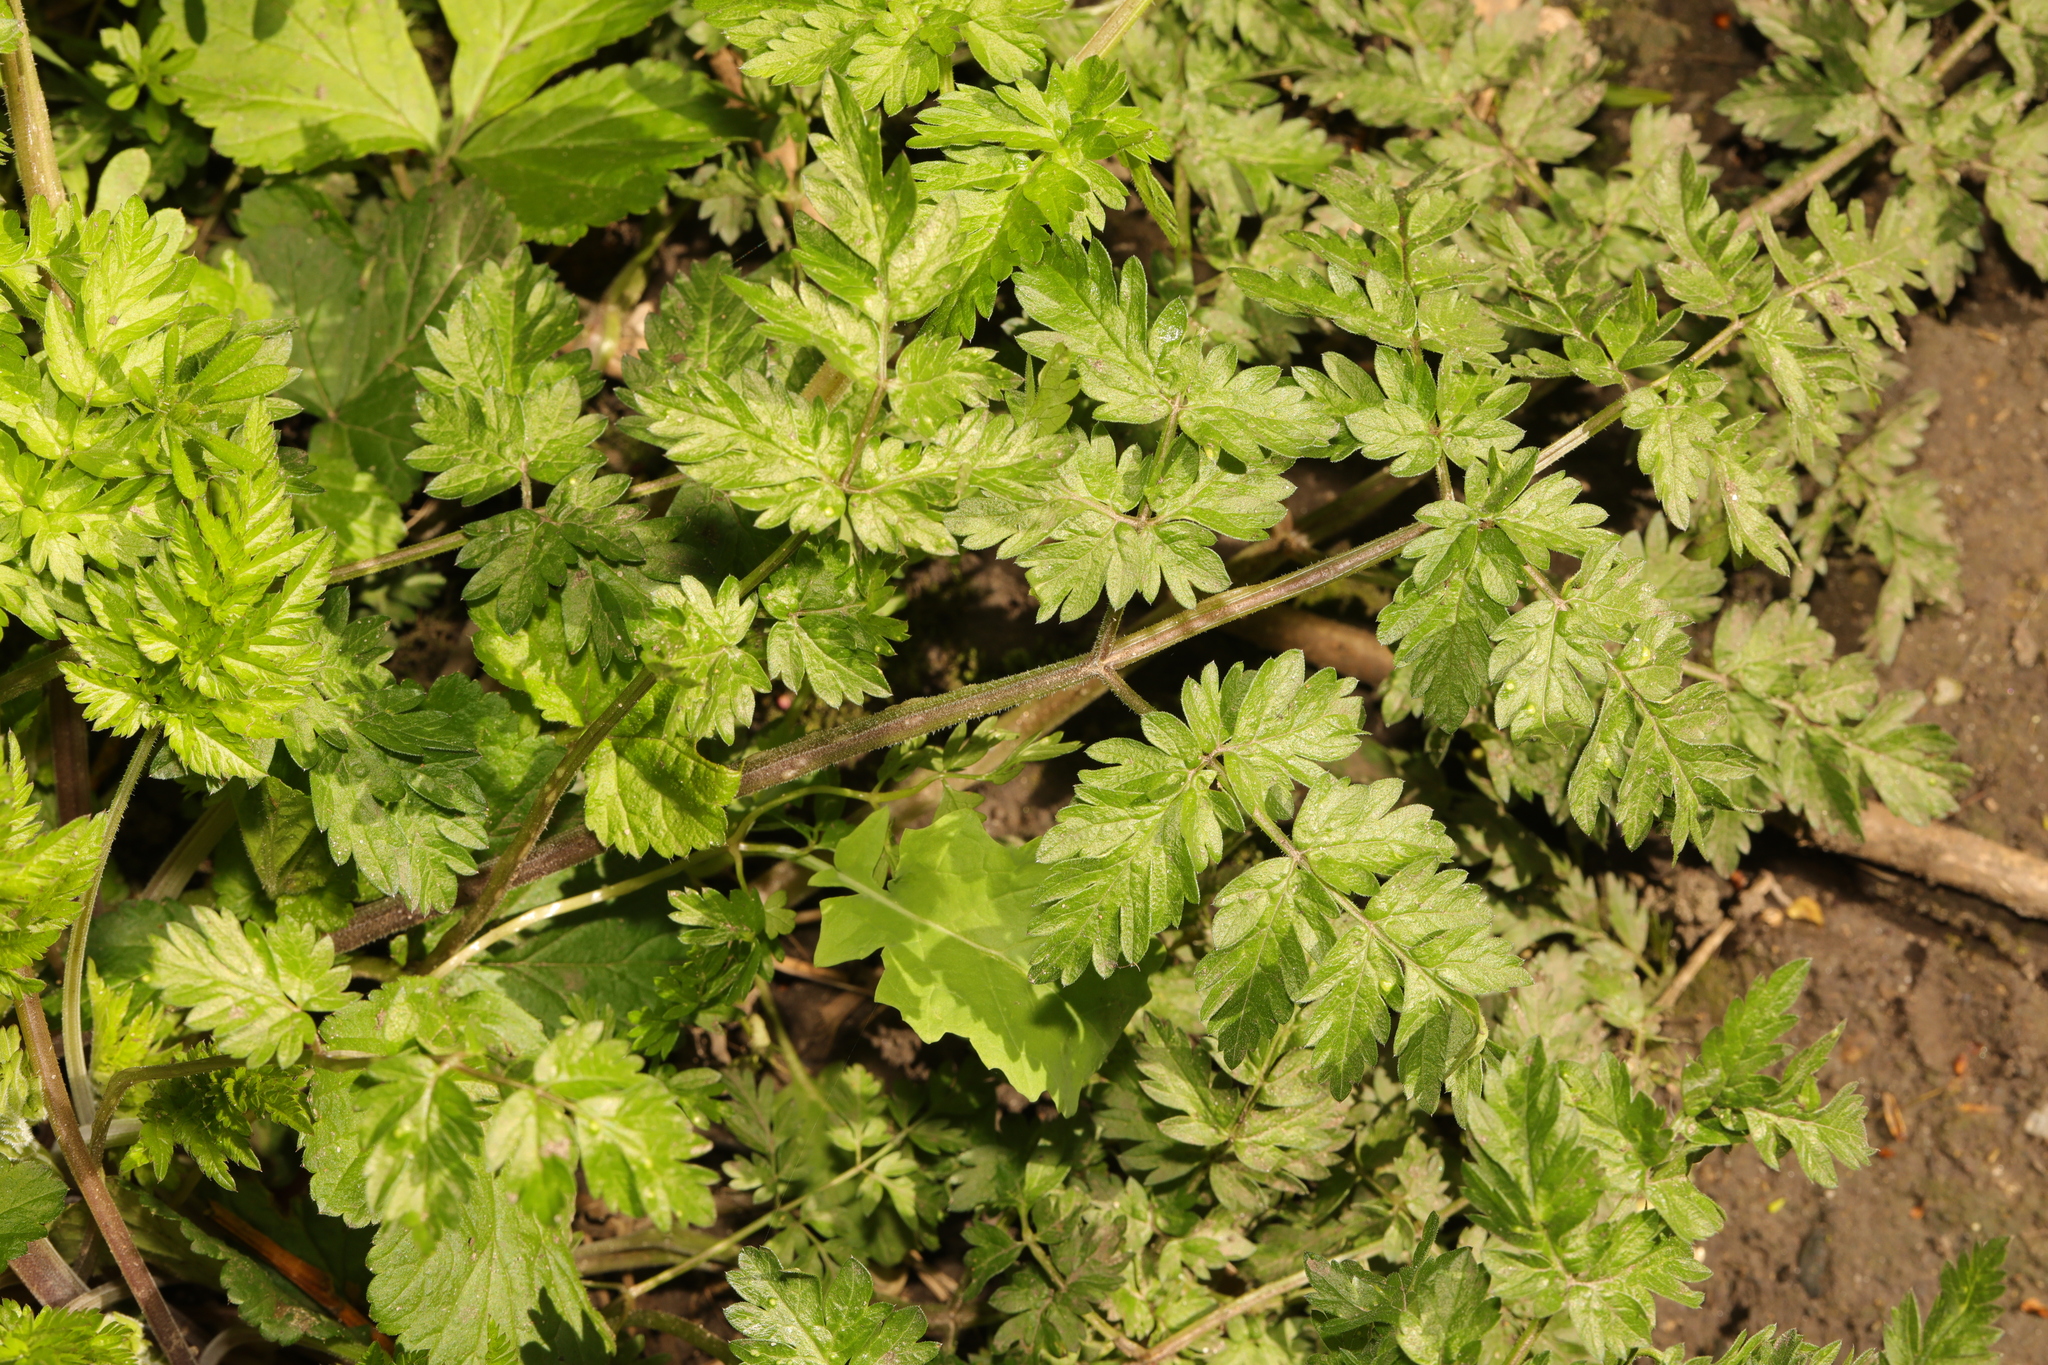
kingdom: Plantae
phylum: Tracheophyta
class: Magnoliopsida
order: Apiales
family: Apiaceae
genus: Anthriscus
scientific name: Anthriscus sylvestris
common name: Cow parsley
